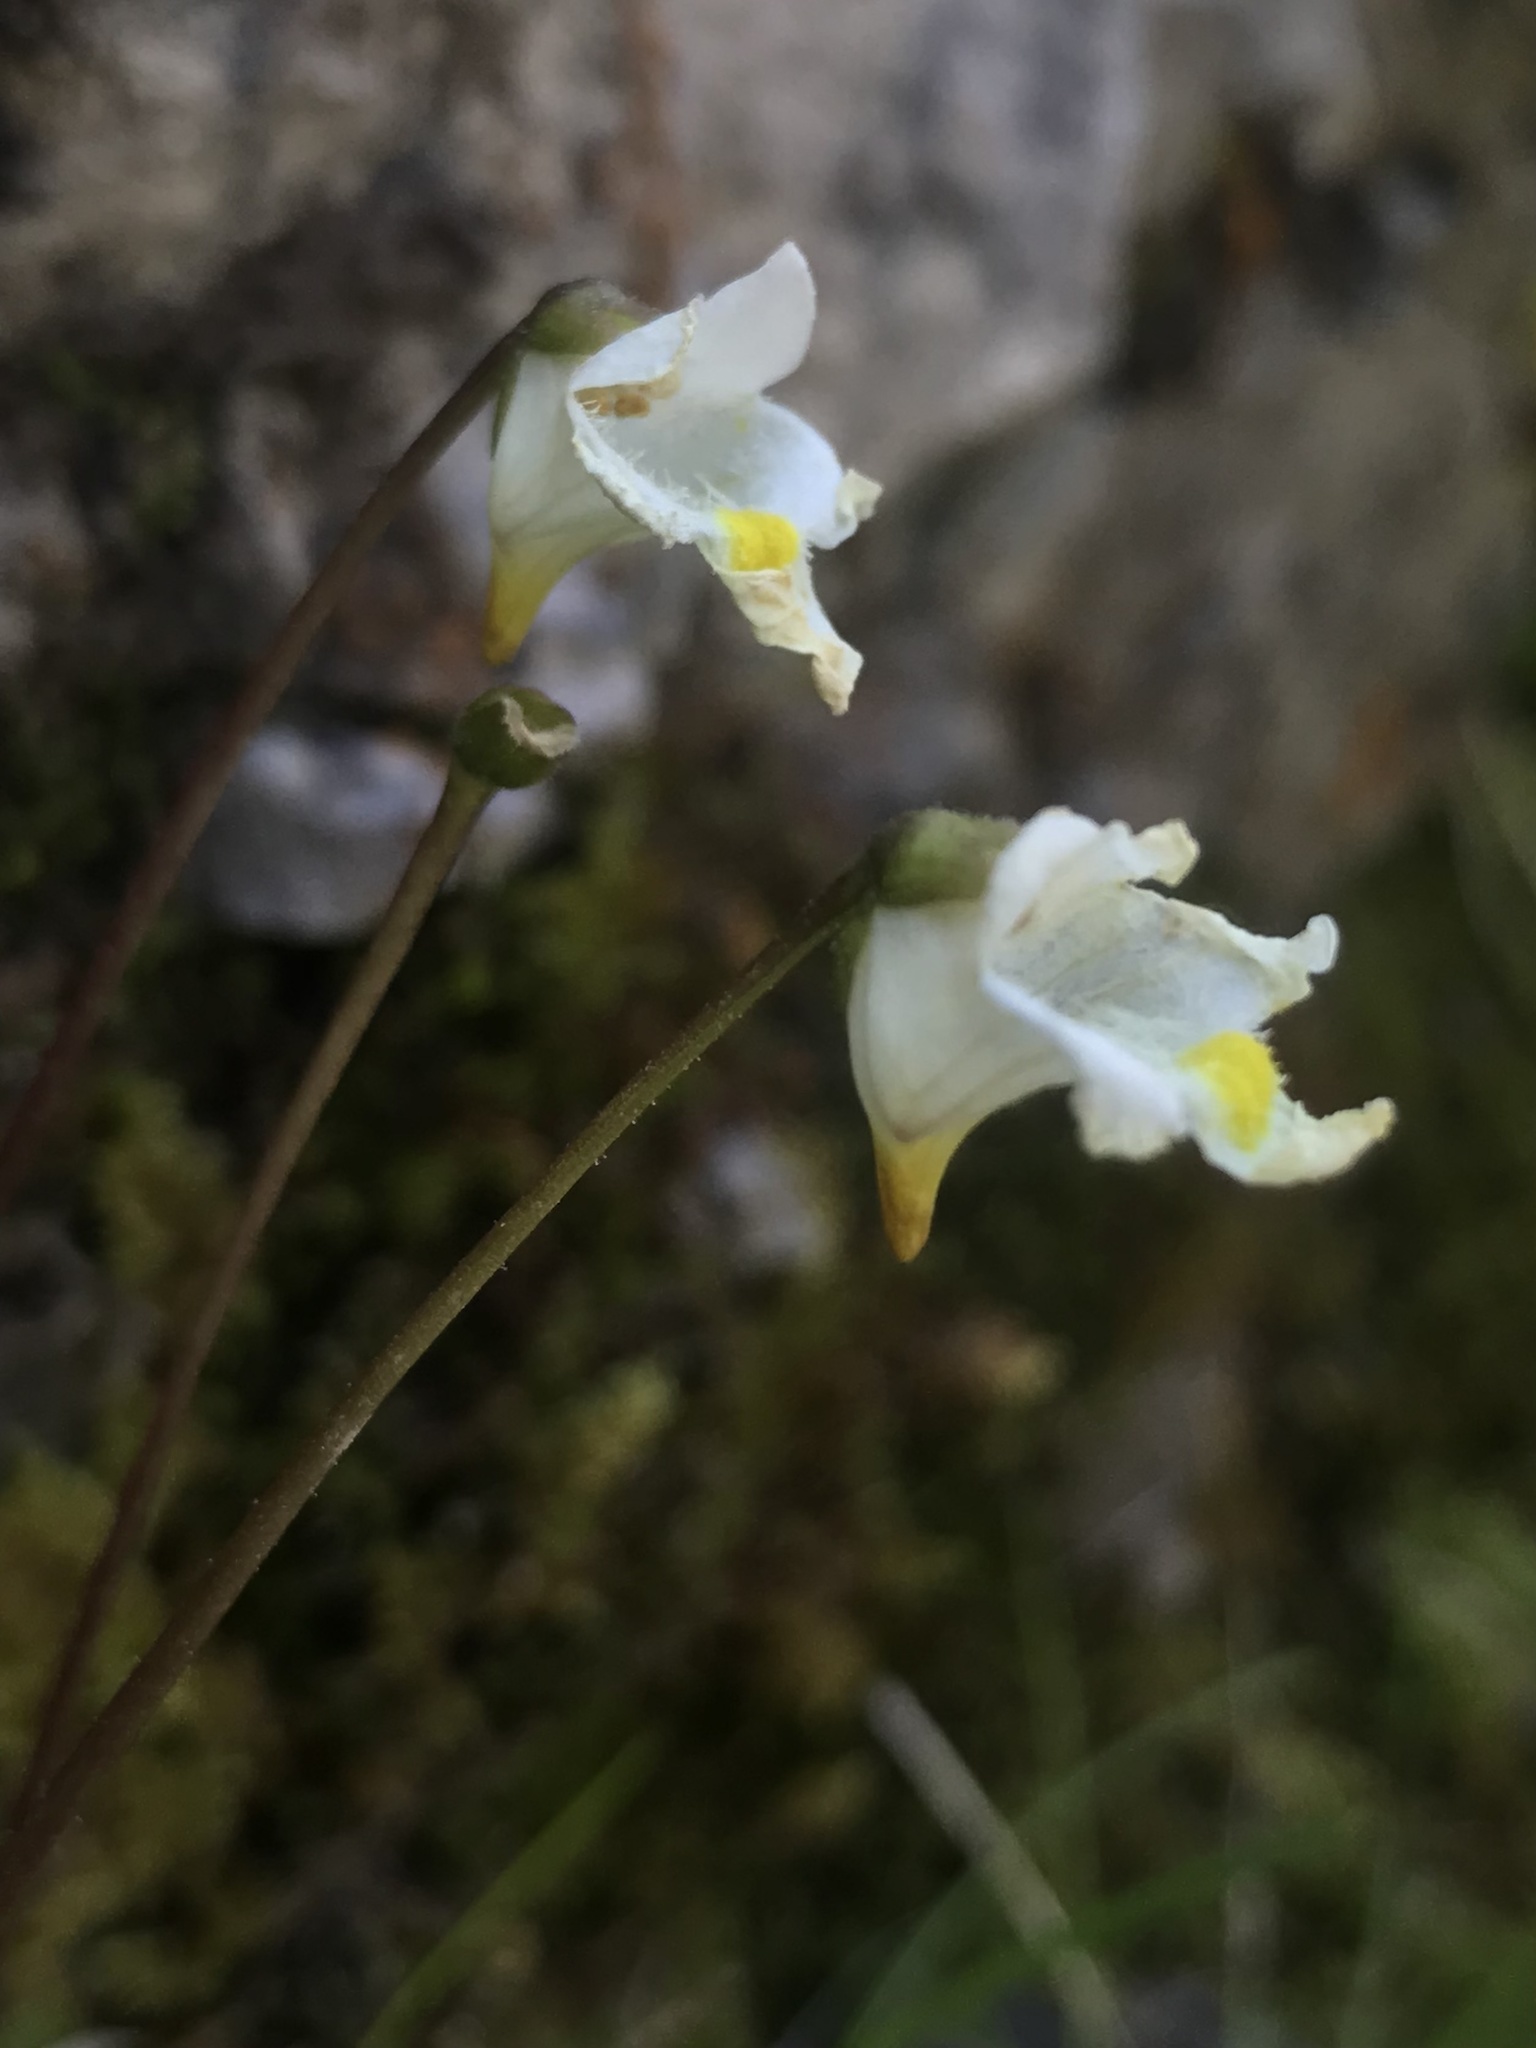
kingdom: Plantae
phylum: Tracheophyta
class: Magnoliopsida
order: Lamiales
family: Lentibulariaceae
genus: Pinguicula
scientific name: Pinguicula alpina
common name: Alpine butterwort
